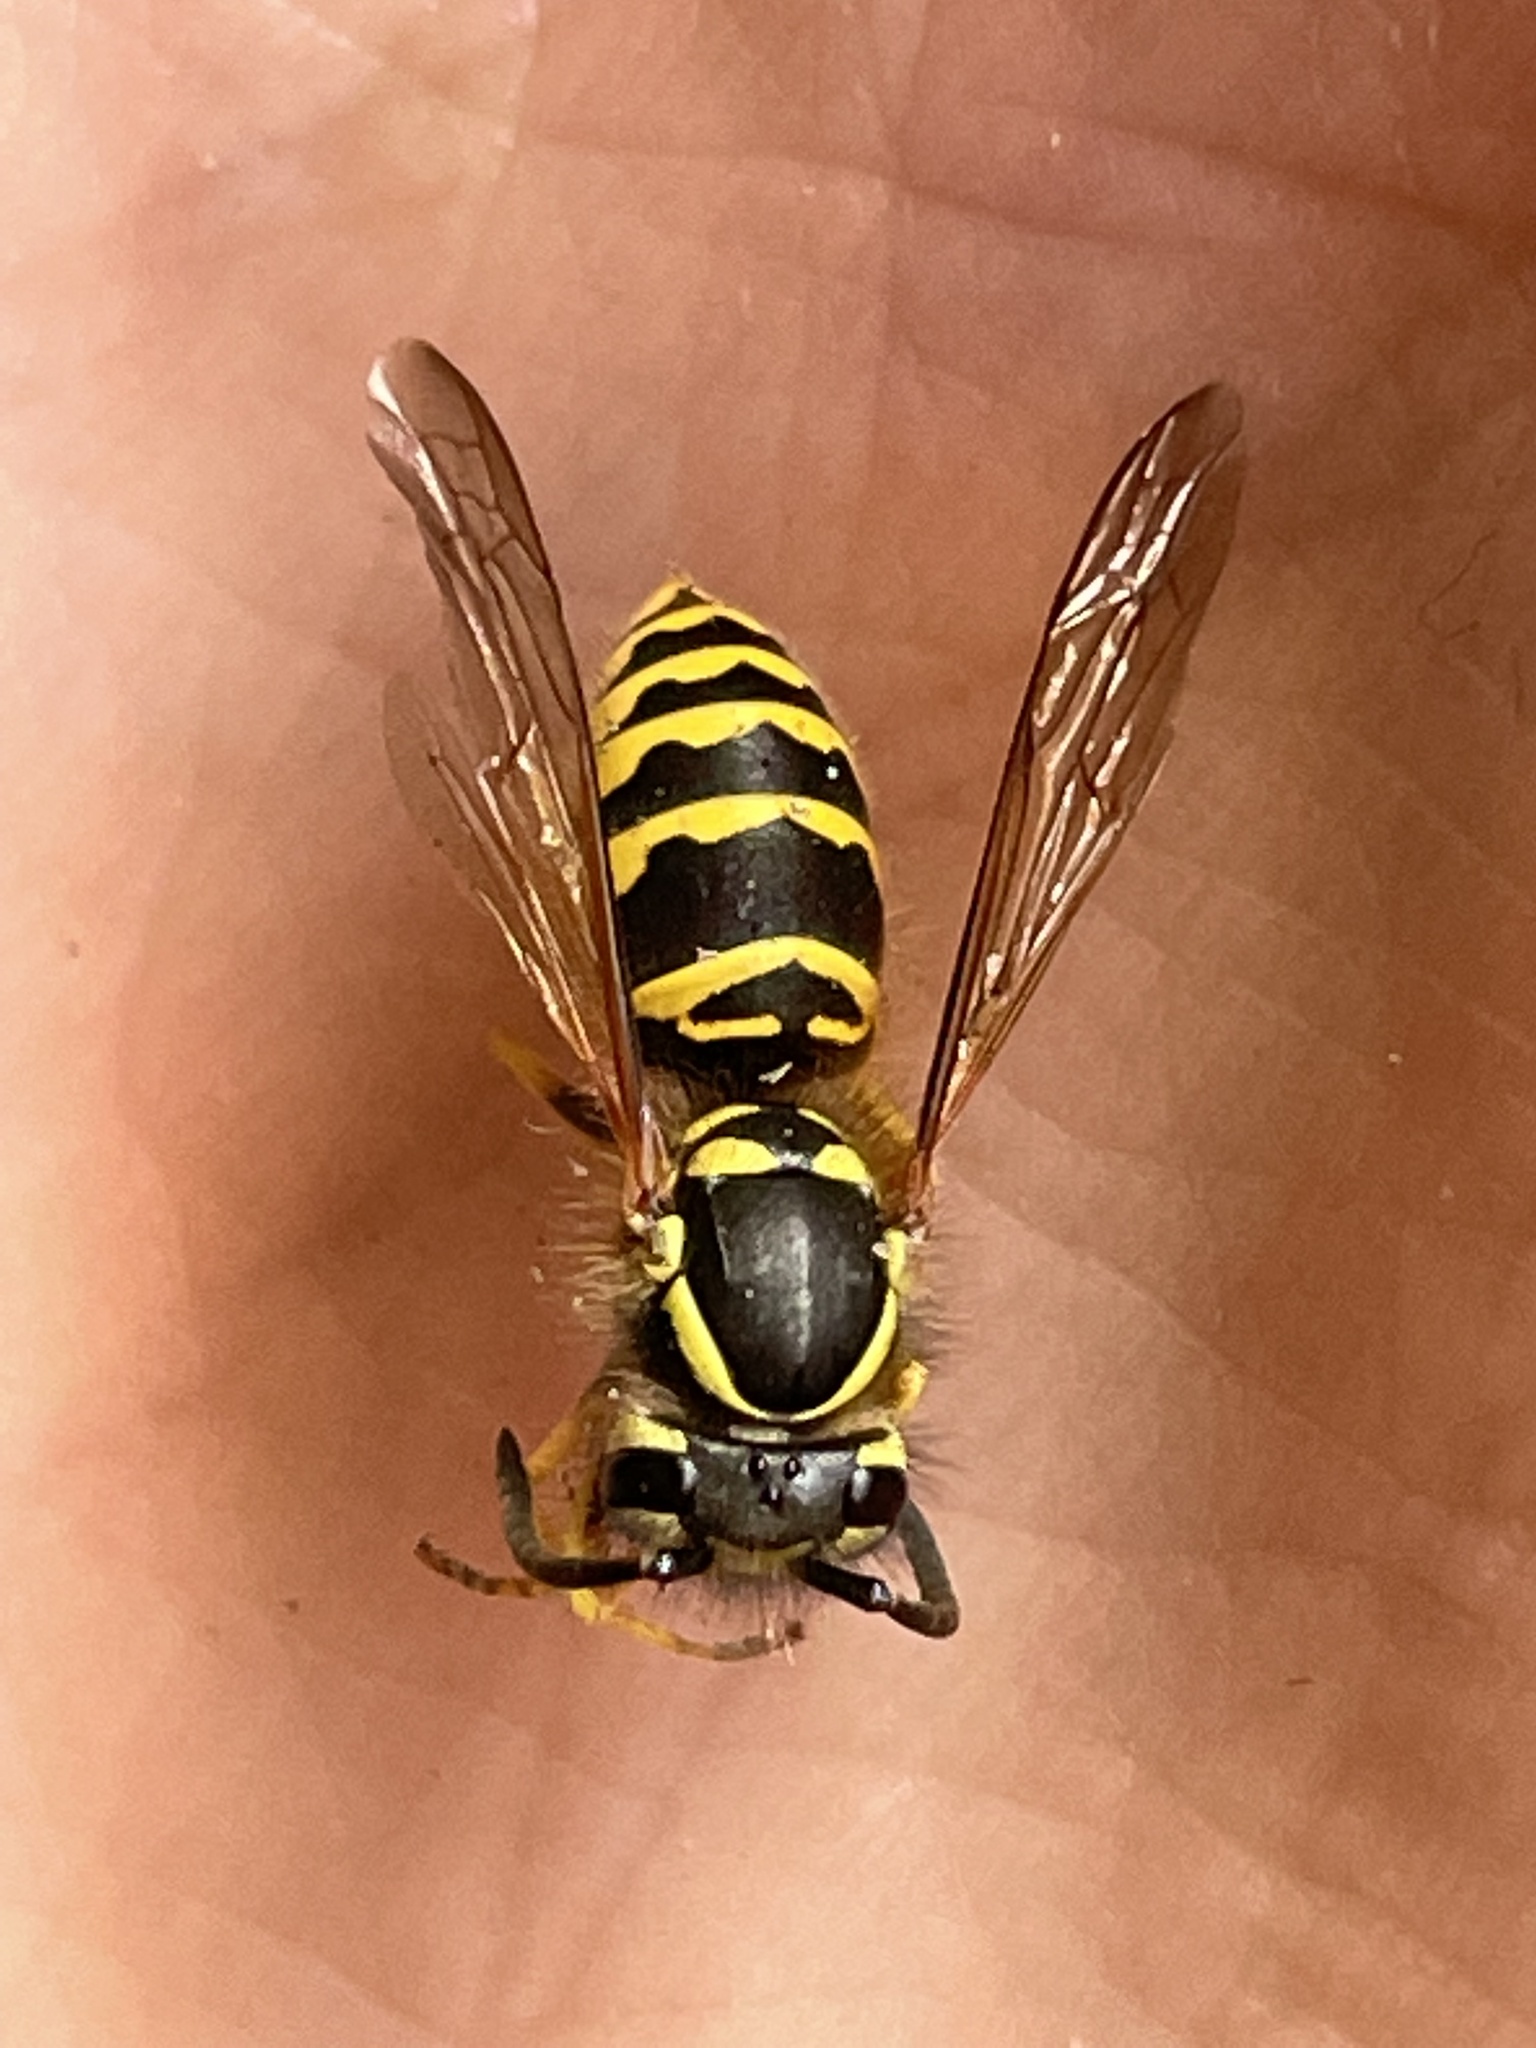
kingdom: Animalia
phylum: Arthropoda
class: Insecta
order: Hymenoptera
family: Vespidae
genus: Vespula
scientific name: Vespula maculifrons
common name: Eastern yellowjacket
